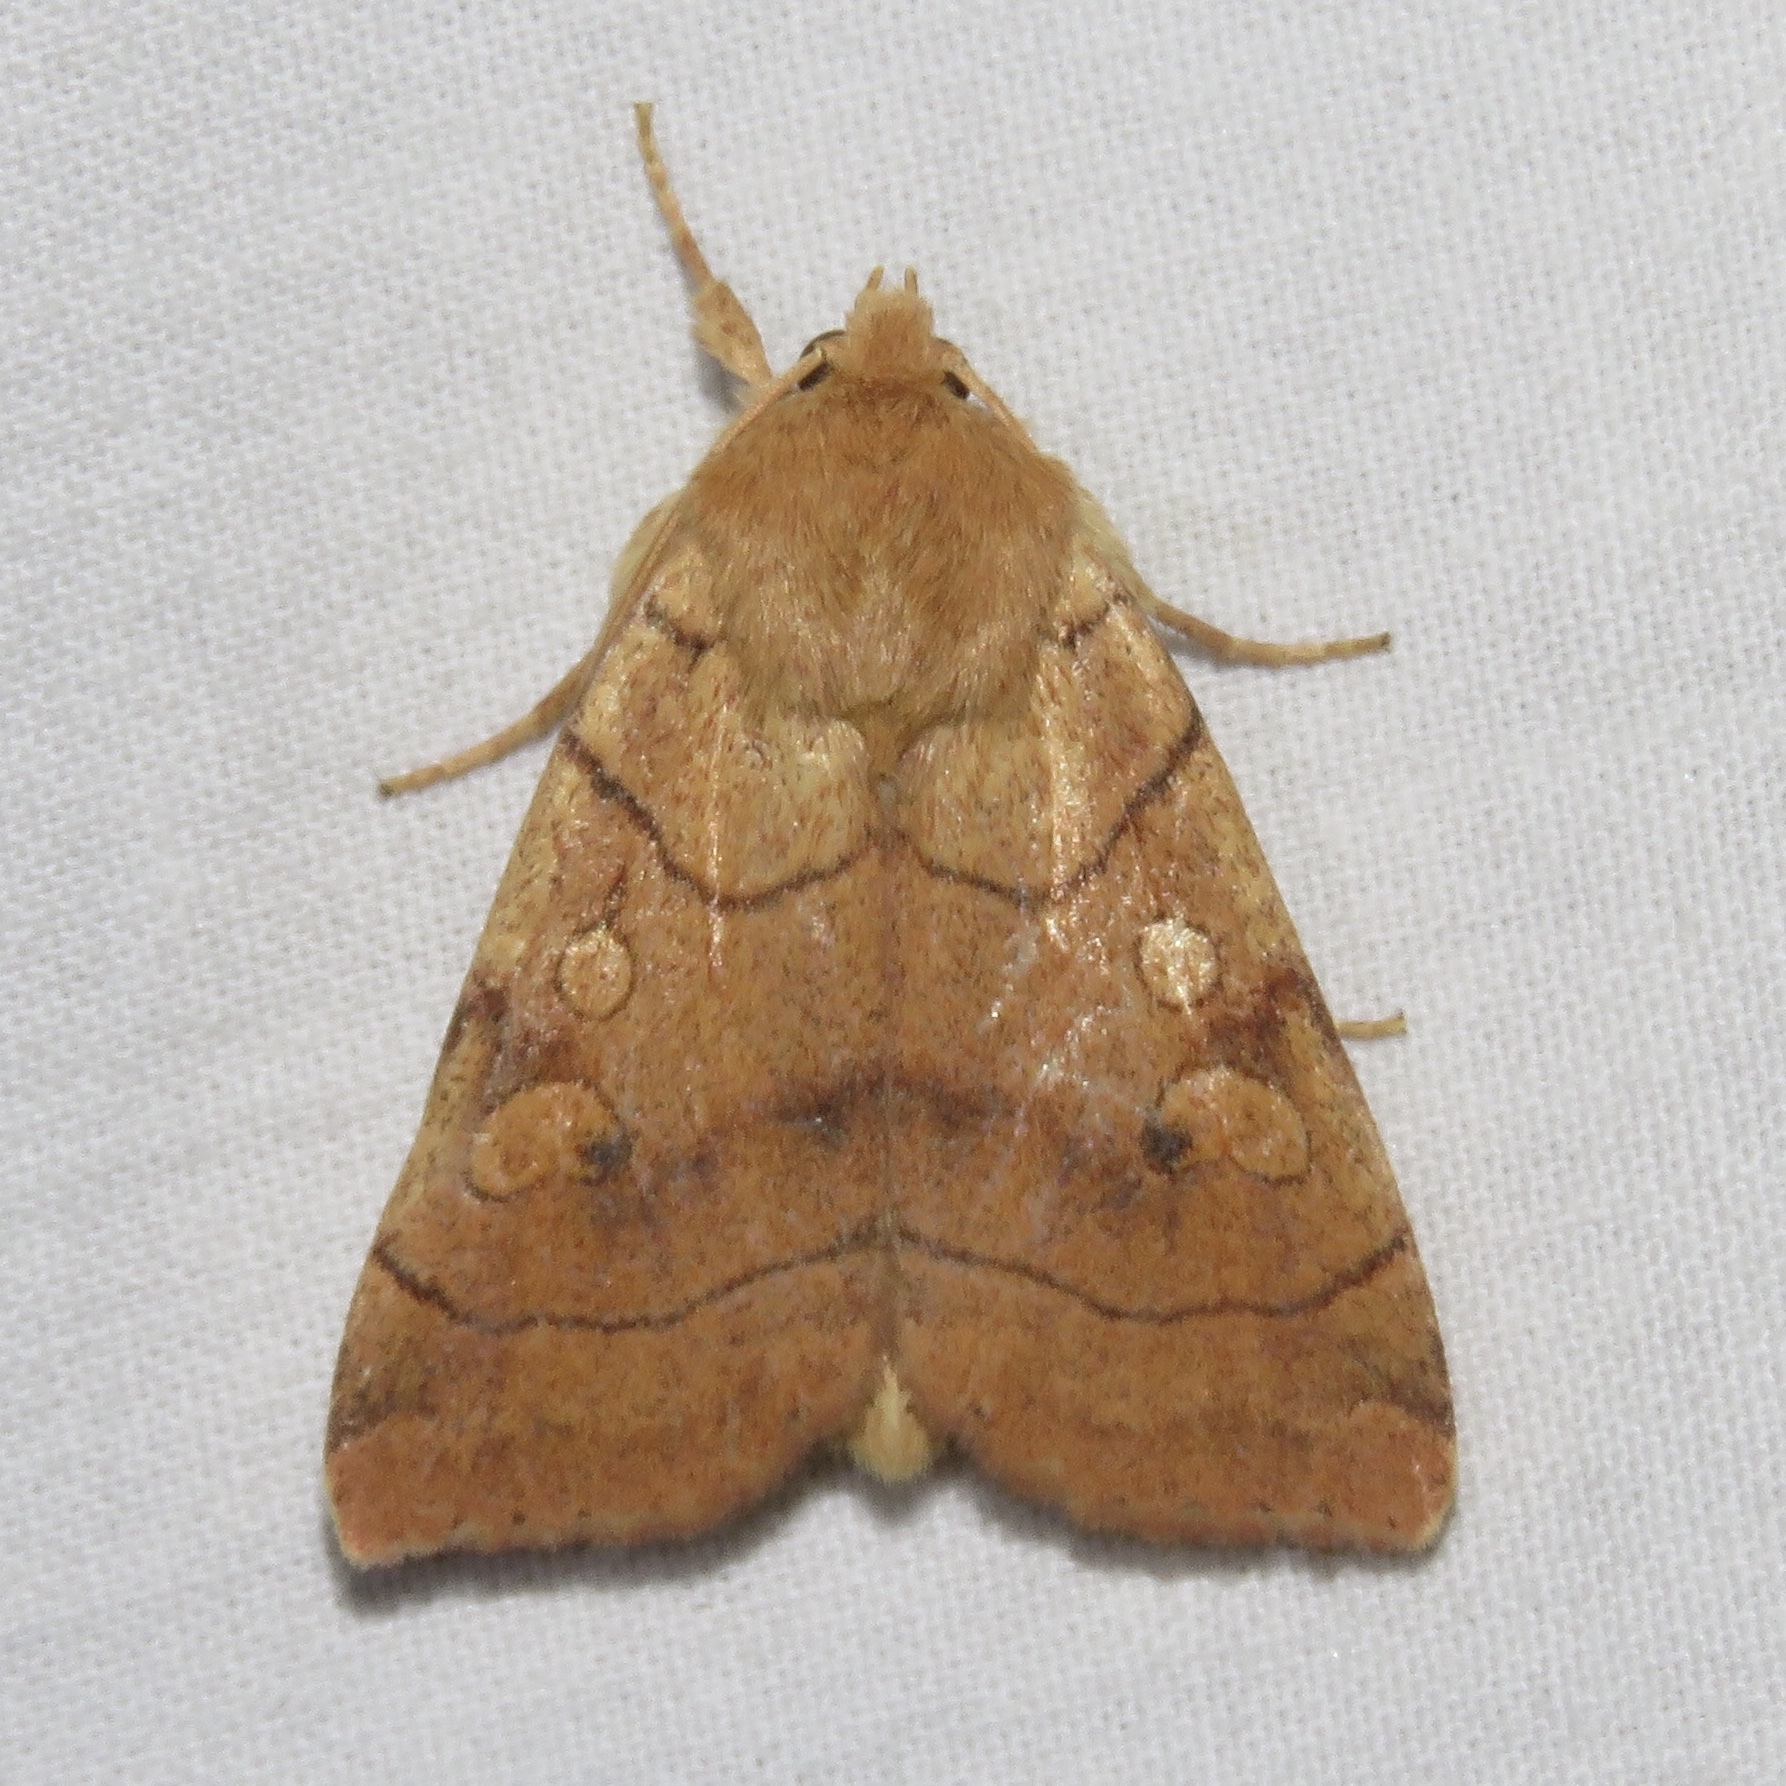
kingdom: Animalia
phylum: Arthropoda
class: Insecta
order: Lepidoptera
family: Noctuidae
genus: Enargia
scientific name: Enargia decolor
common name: Aspen twoleaf tier moth
